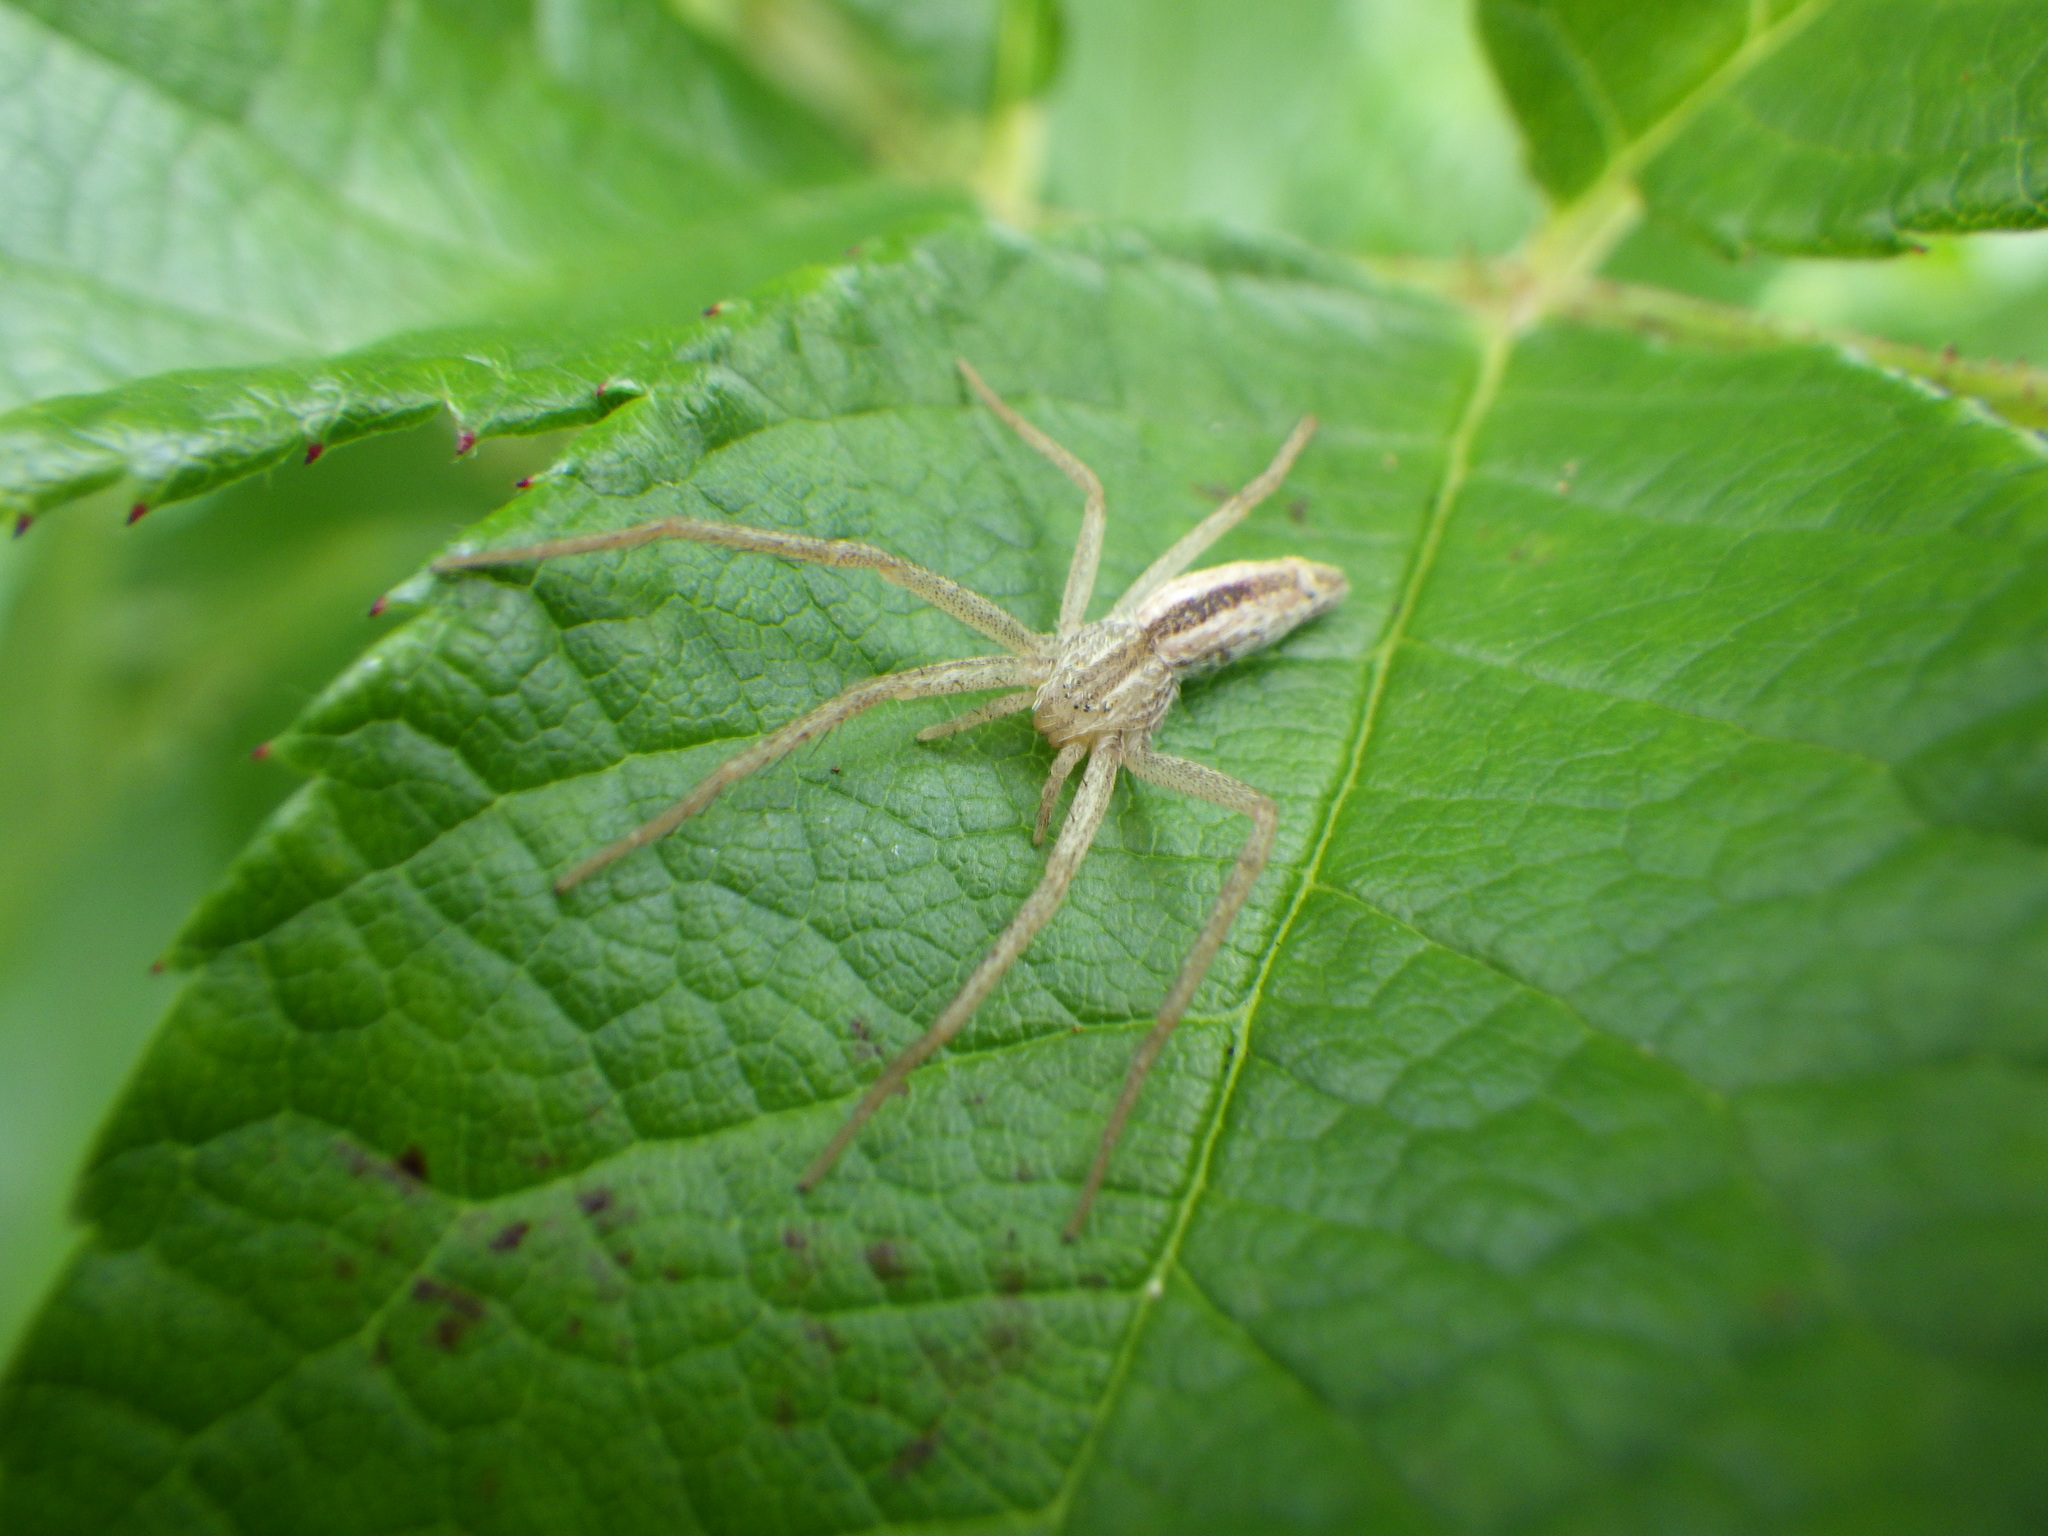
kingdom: Animalia
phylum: Arthropoda
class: Arachnida
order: Araneae
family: Philodromidae
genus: Tibellus
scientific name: Tibellus oblongus
